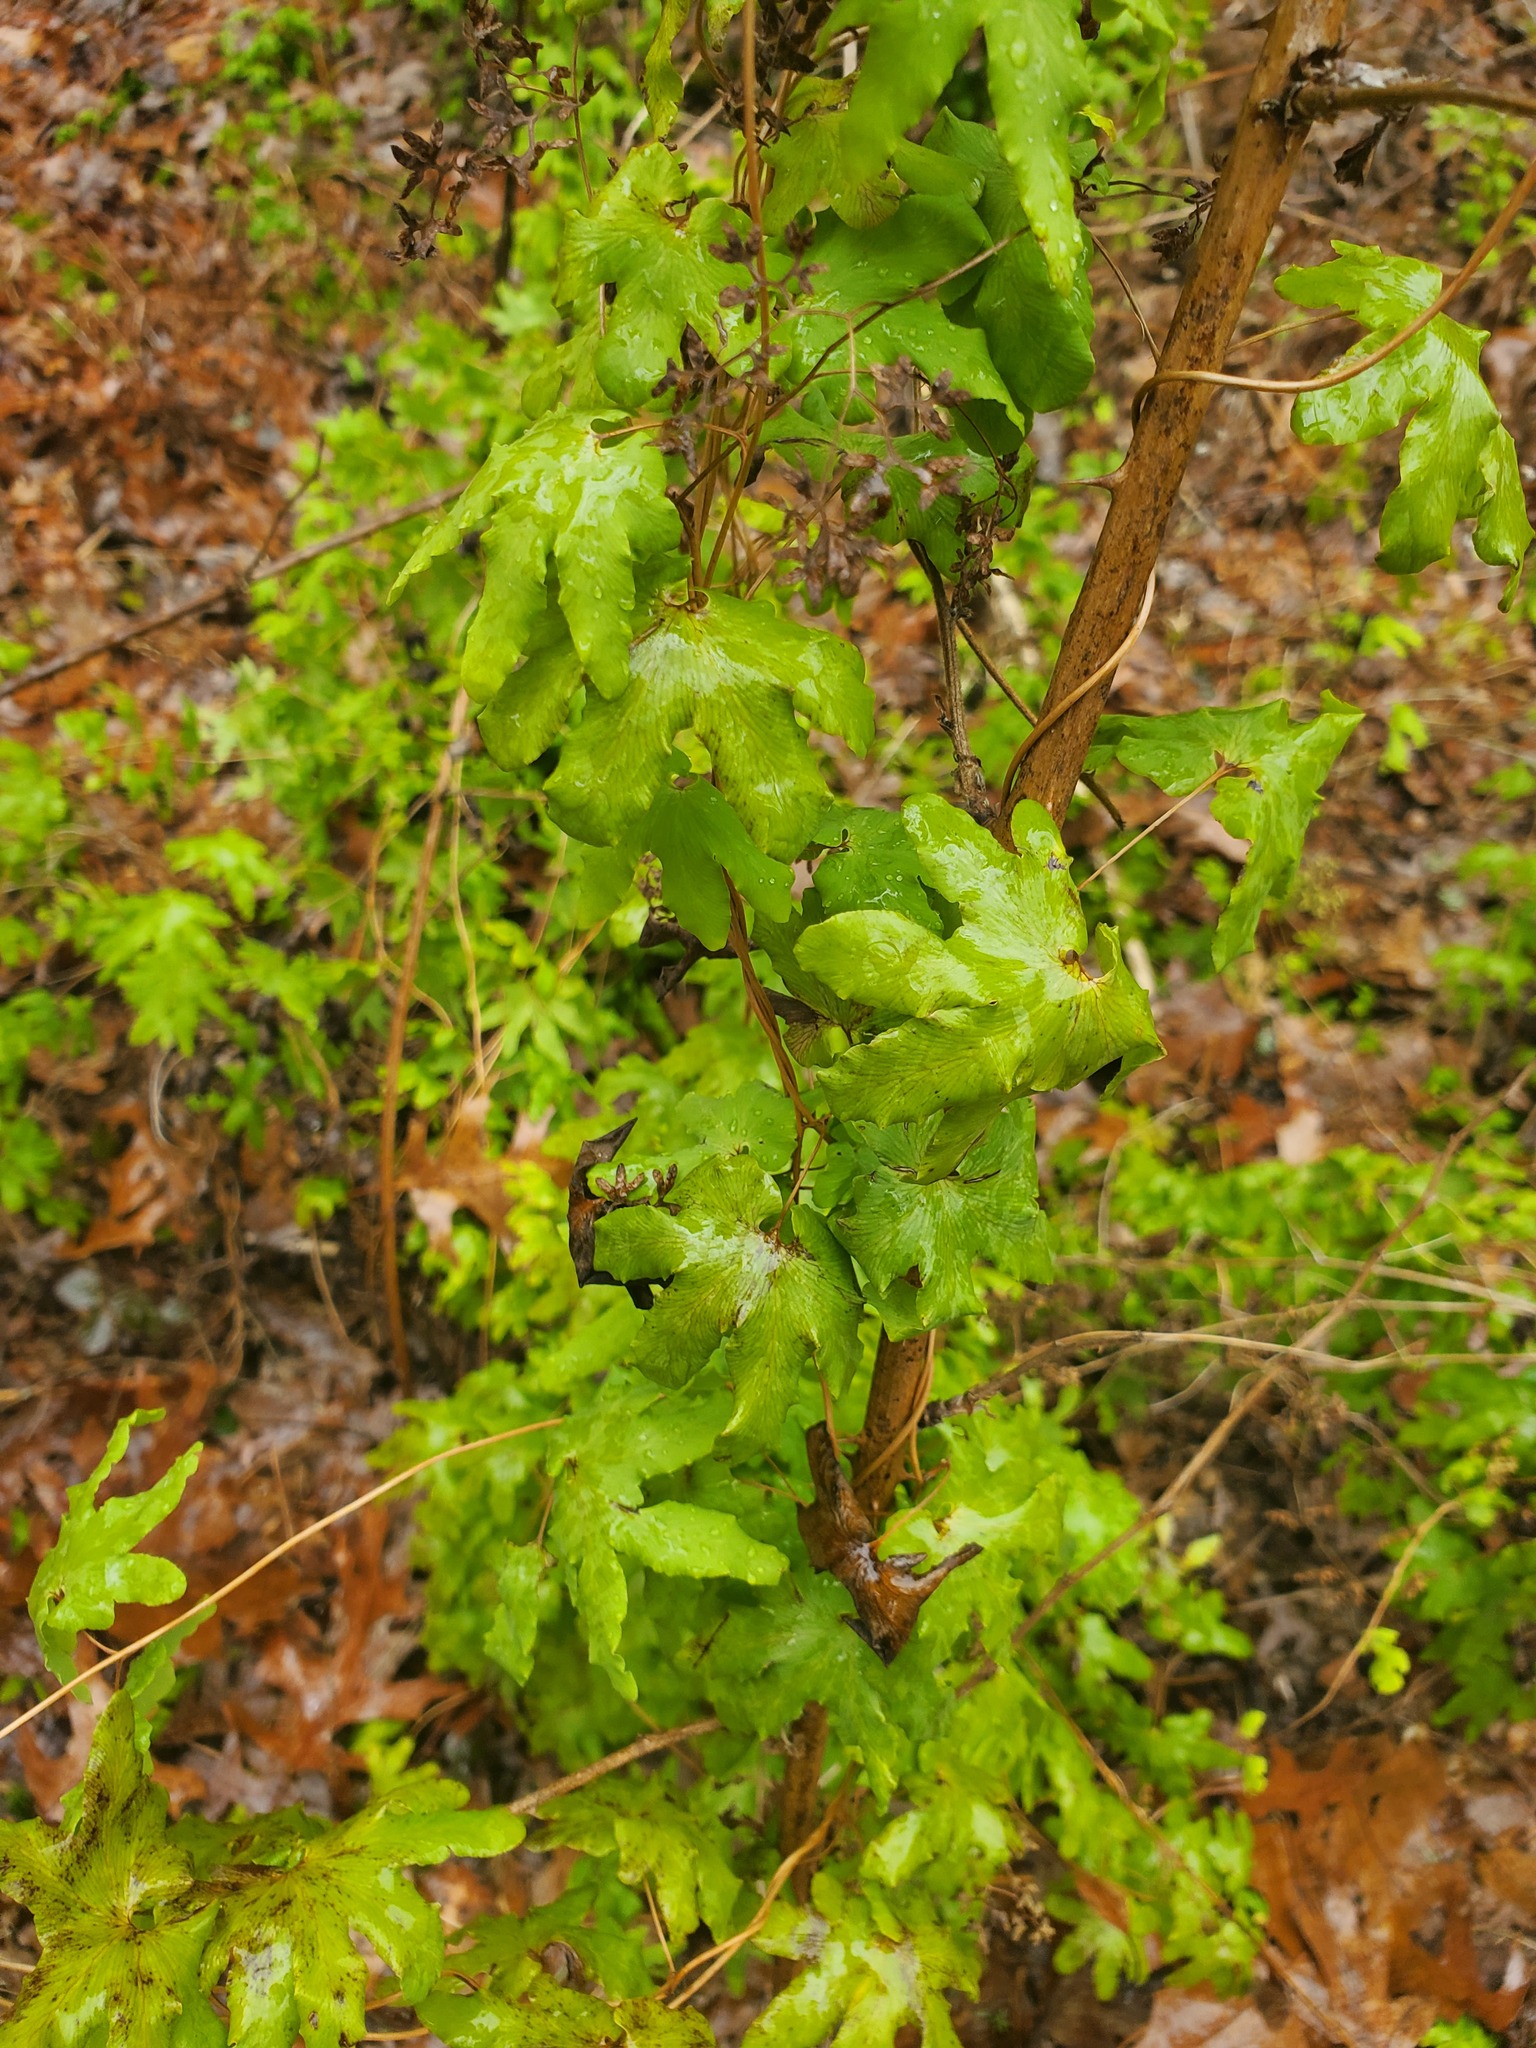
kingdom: Plantae
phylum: Tracheophyta
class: Polypodiopsida
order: Schizaeales
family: Lygodiaceae
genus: Lygodium
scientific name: Lygodium palmatum
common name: American climbing fern
